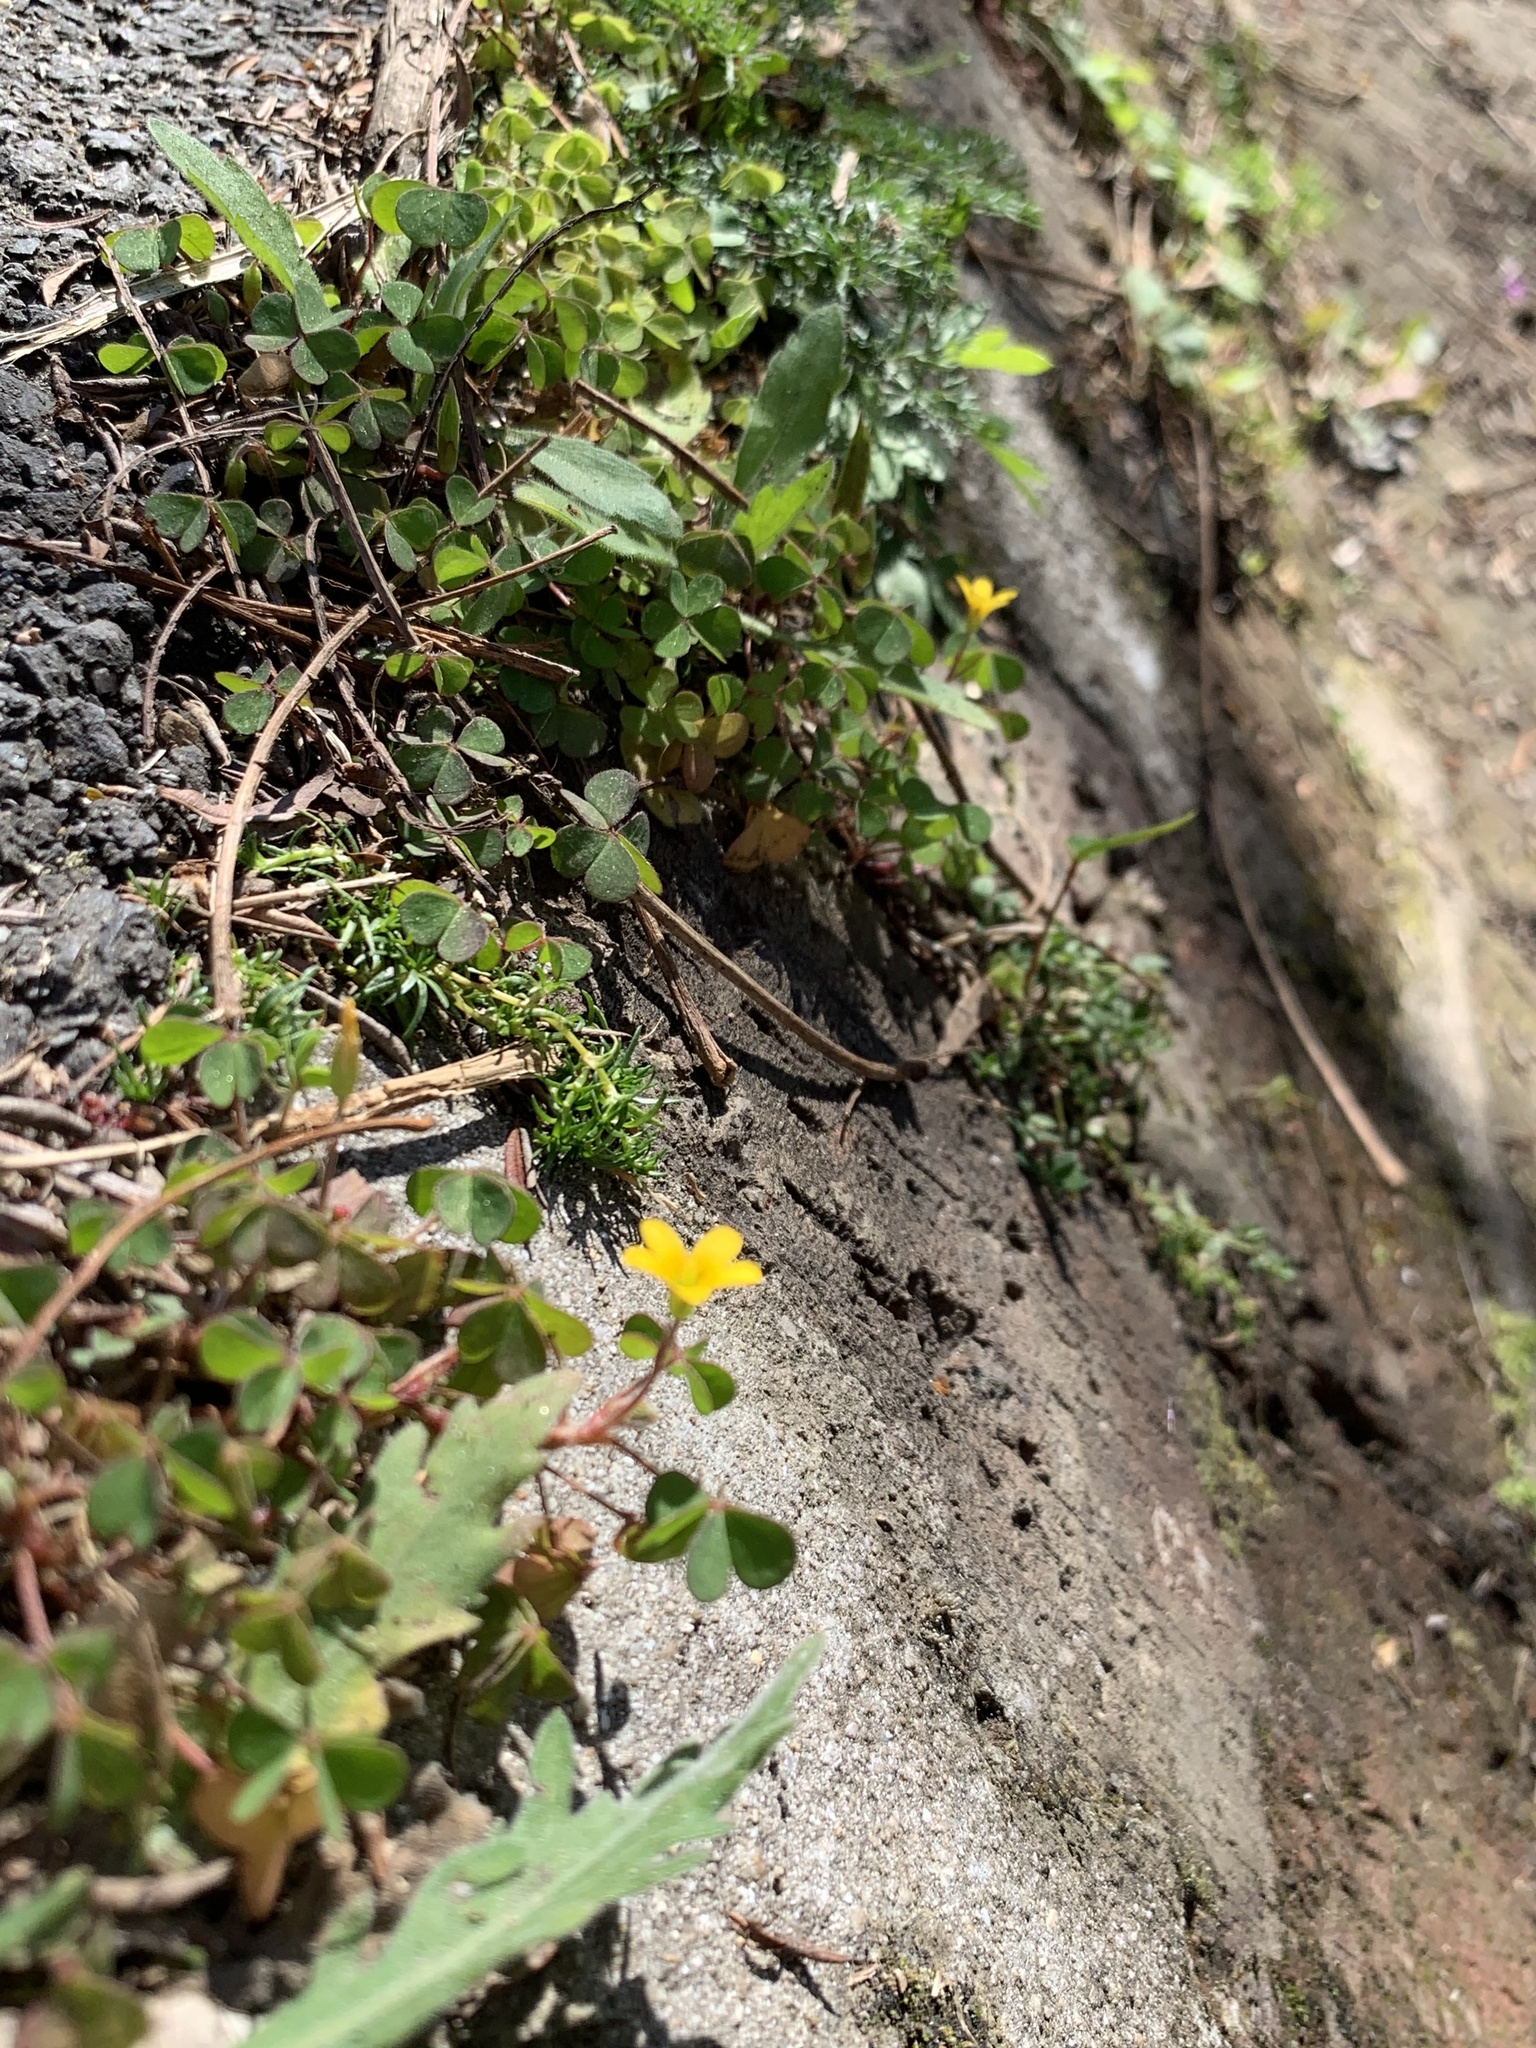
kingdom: Plantae
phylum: Tracheophyta
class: Magnoliopsida
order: Oxalidales
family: Oxalidaceae
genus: Oxalis
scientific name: Oxalis corniculata
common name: Procumbent yellow-sorrel
